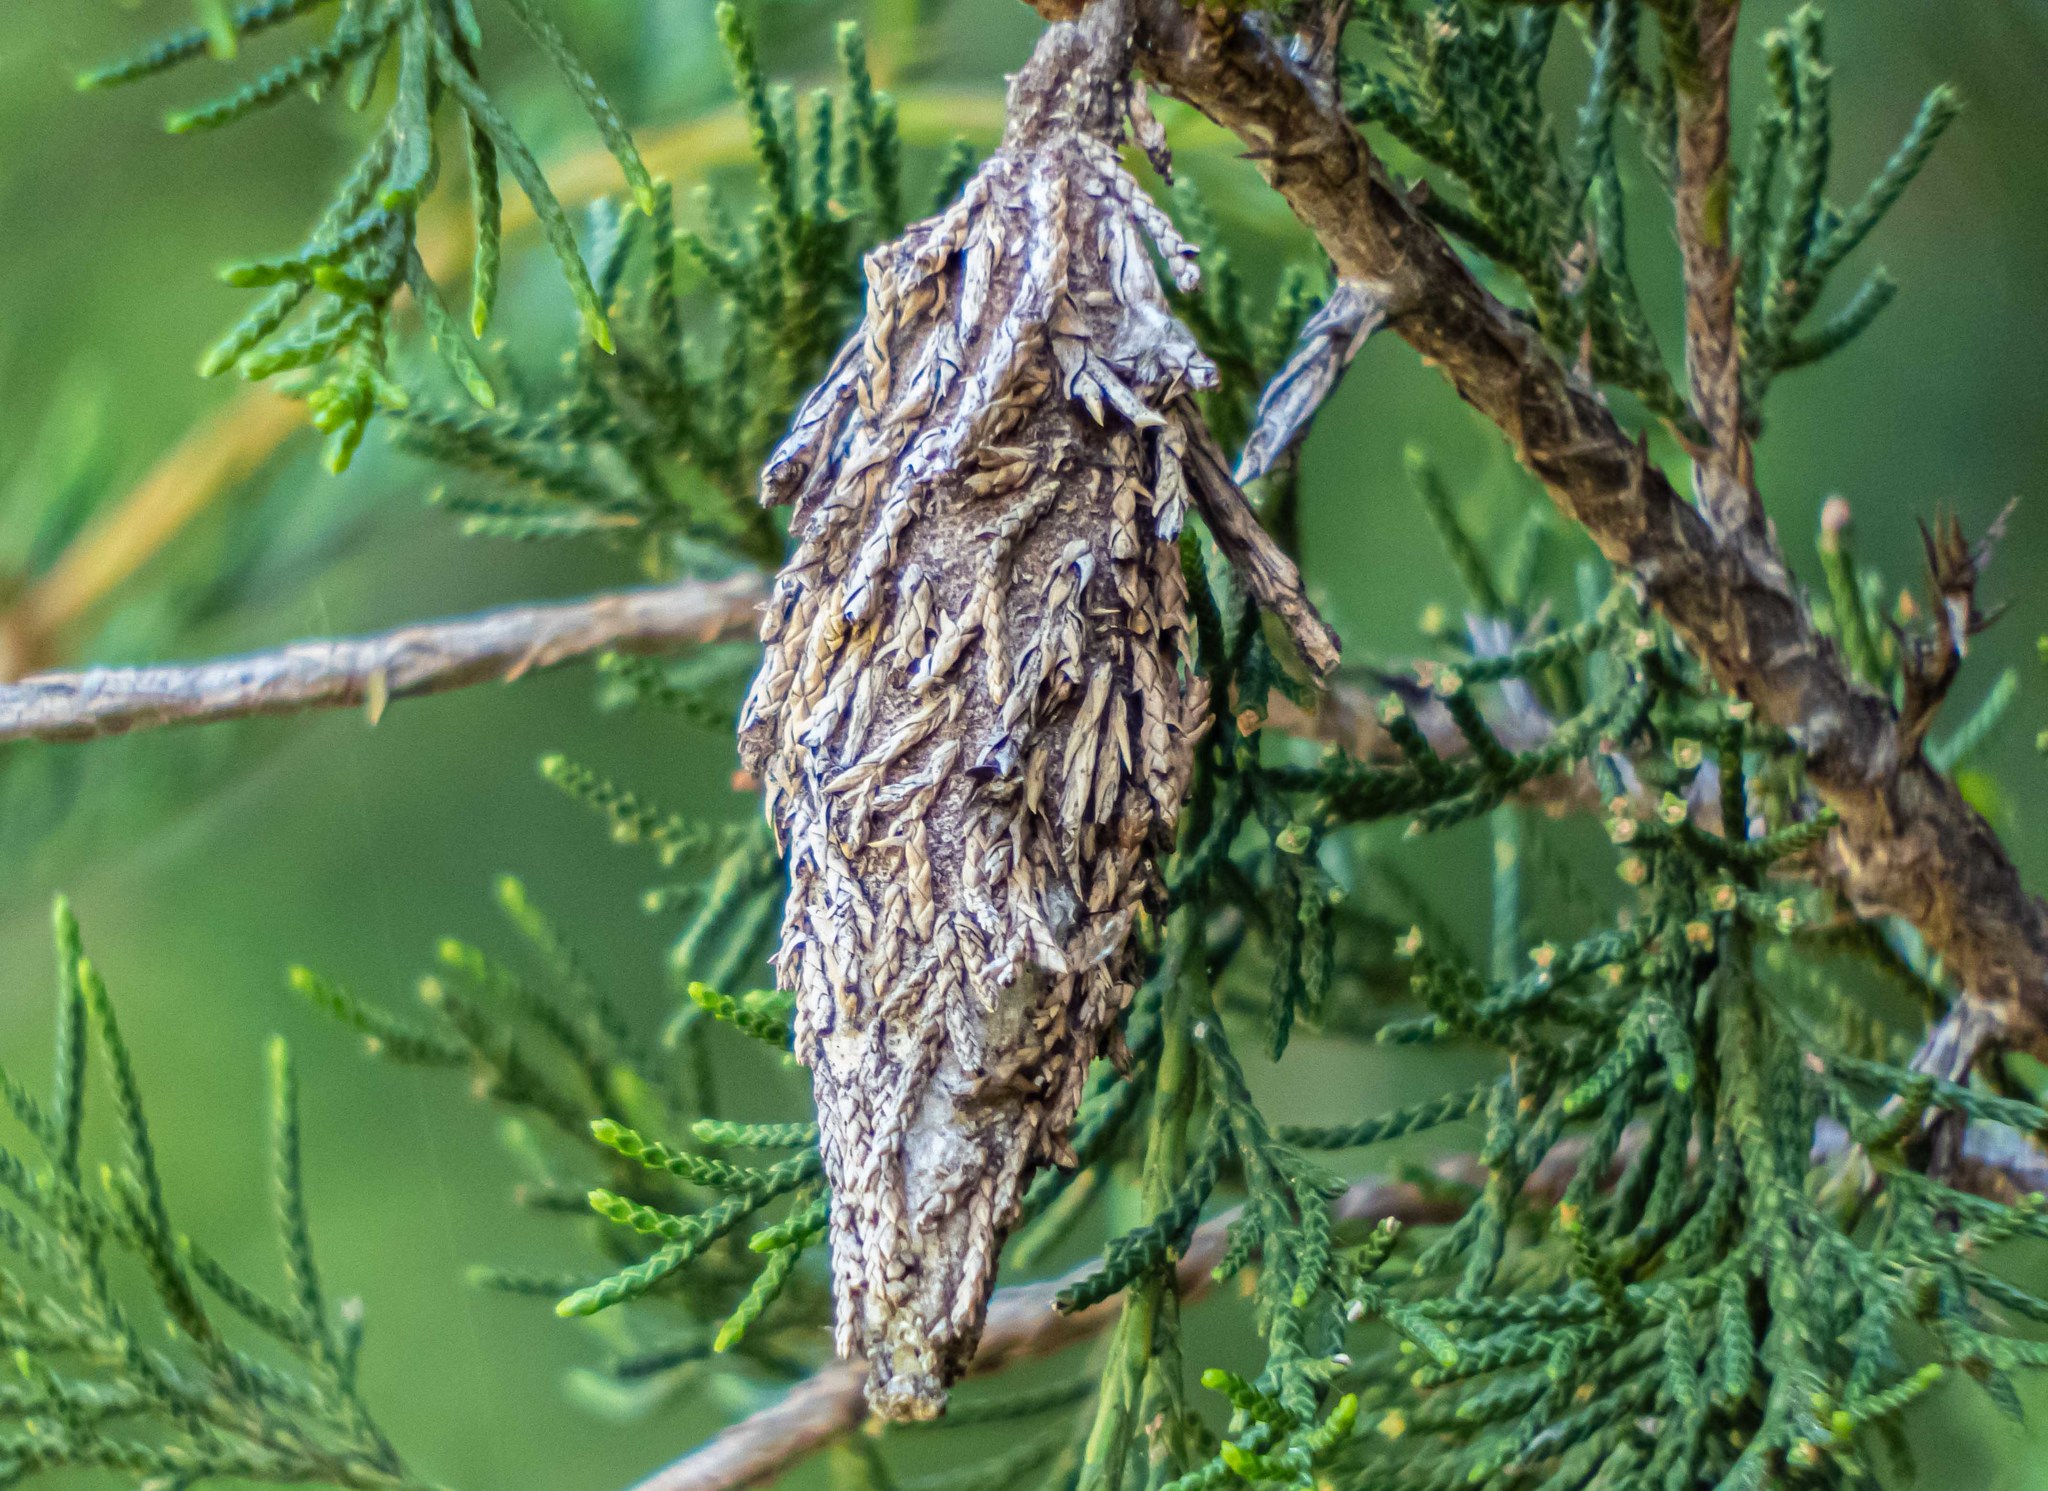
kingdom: Animalia
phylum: Arthropoda
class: Insecta
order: Lepidoptera
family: Psychidae
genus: Thyridopteryx
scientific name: Thyridopteryx ephemeraeformis
